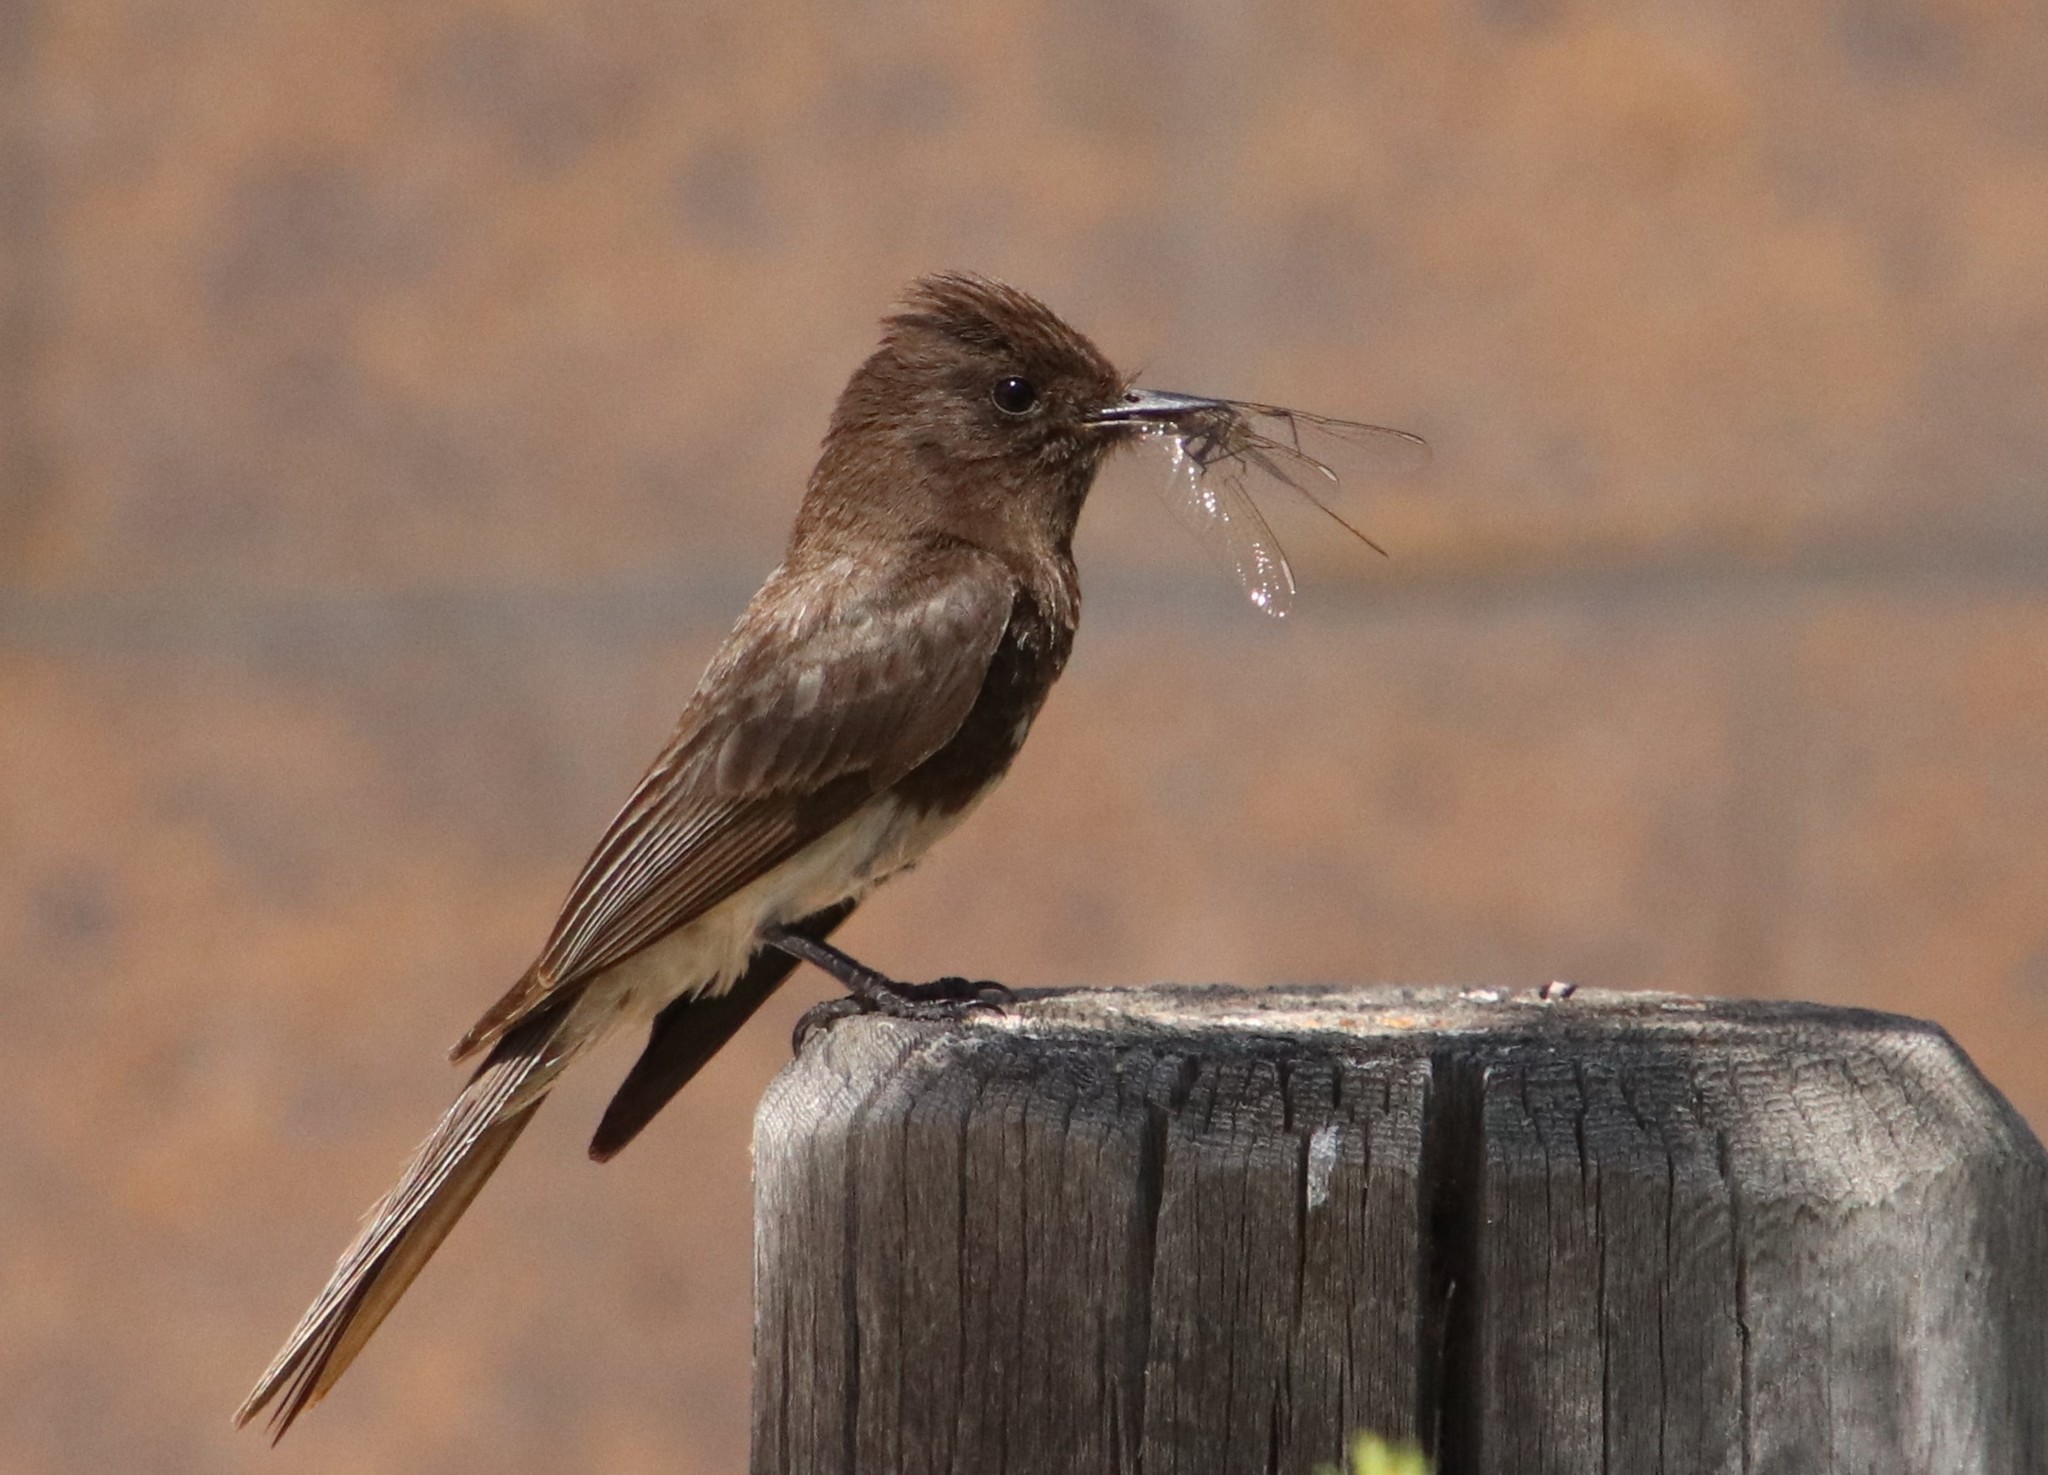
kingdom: Animalia
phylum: Chordata
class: Aves
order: Passeriformes
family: Tyrannidae
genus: Sayornis
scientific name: Sayornis nigricans
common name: Black phoebe
